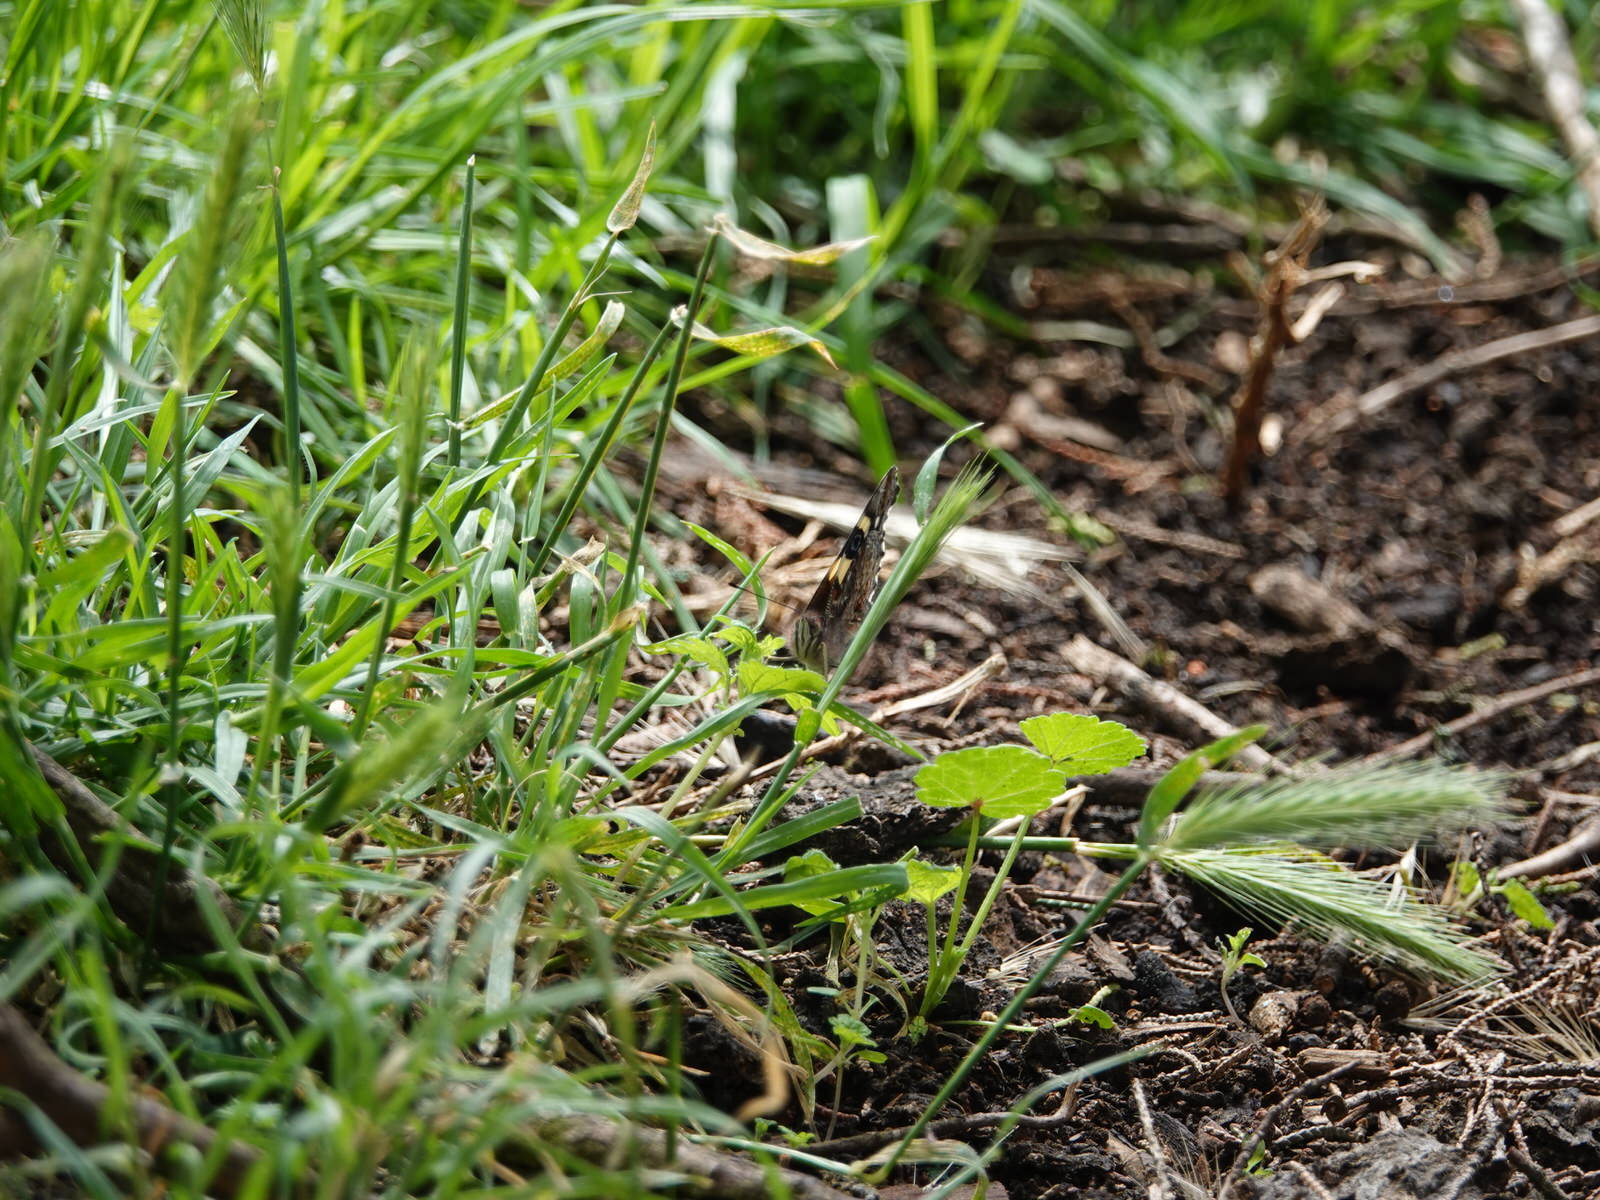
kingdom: Animalia
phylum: Arthropoda
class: Insecta
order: Lepidoptera
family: Nymphalidae
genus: Vanessa
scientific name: Vanessa itea
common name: Yellow admiral
